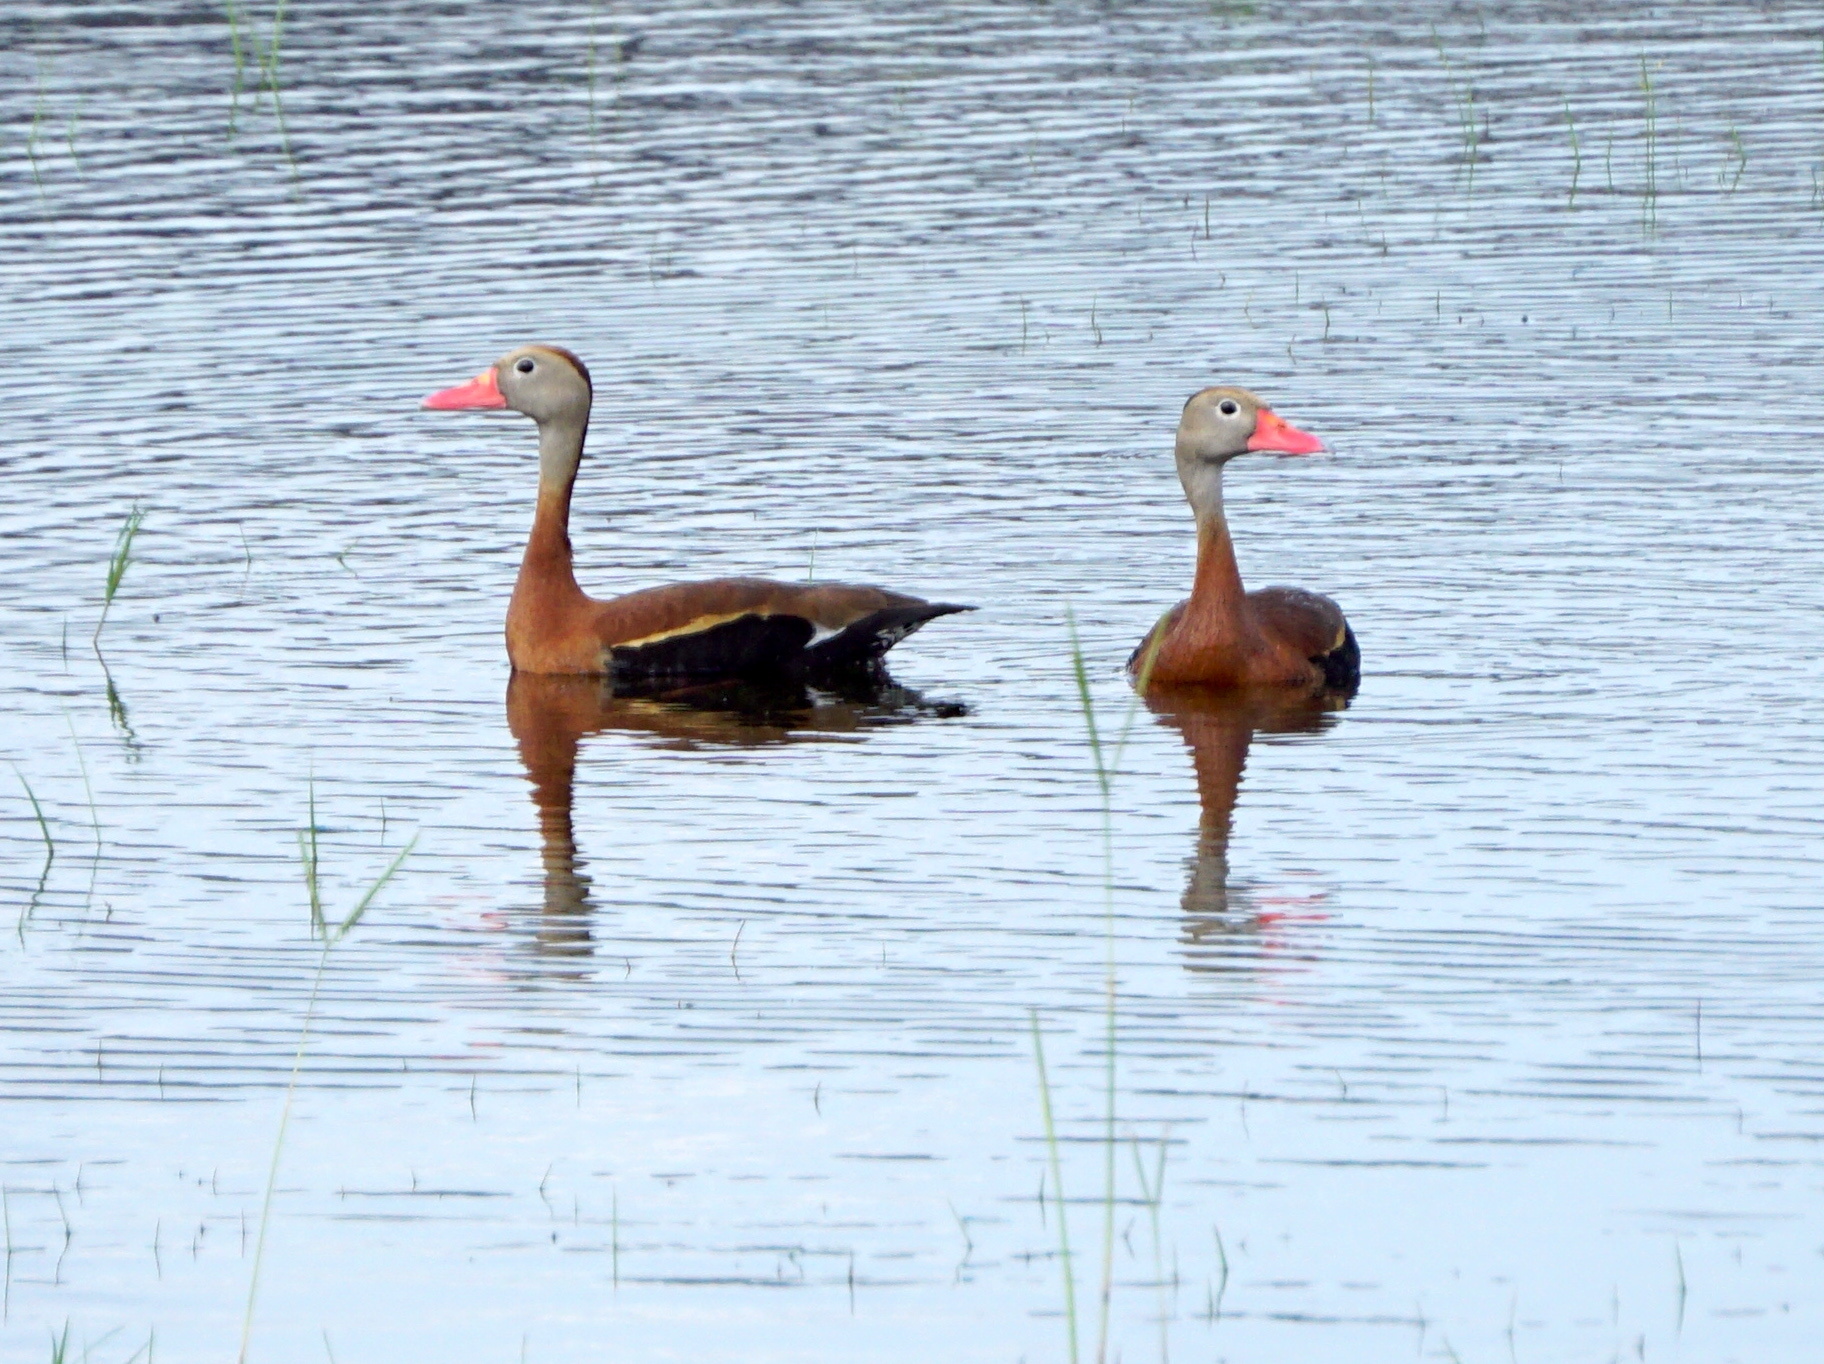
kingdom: Animalia
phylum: Chordata
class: Aves
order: Anseriformes
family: Anatidae
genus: Dendrocygna
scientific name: Dendrocygna autumnalis
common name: Black-bellied whistling duck
